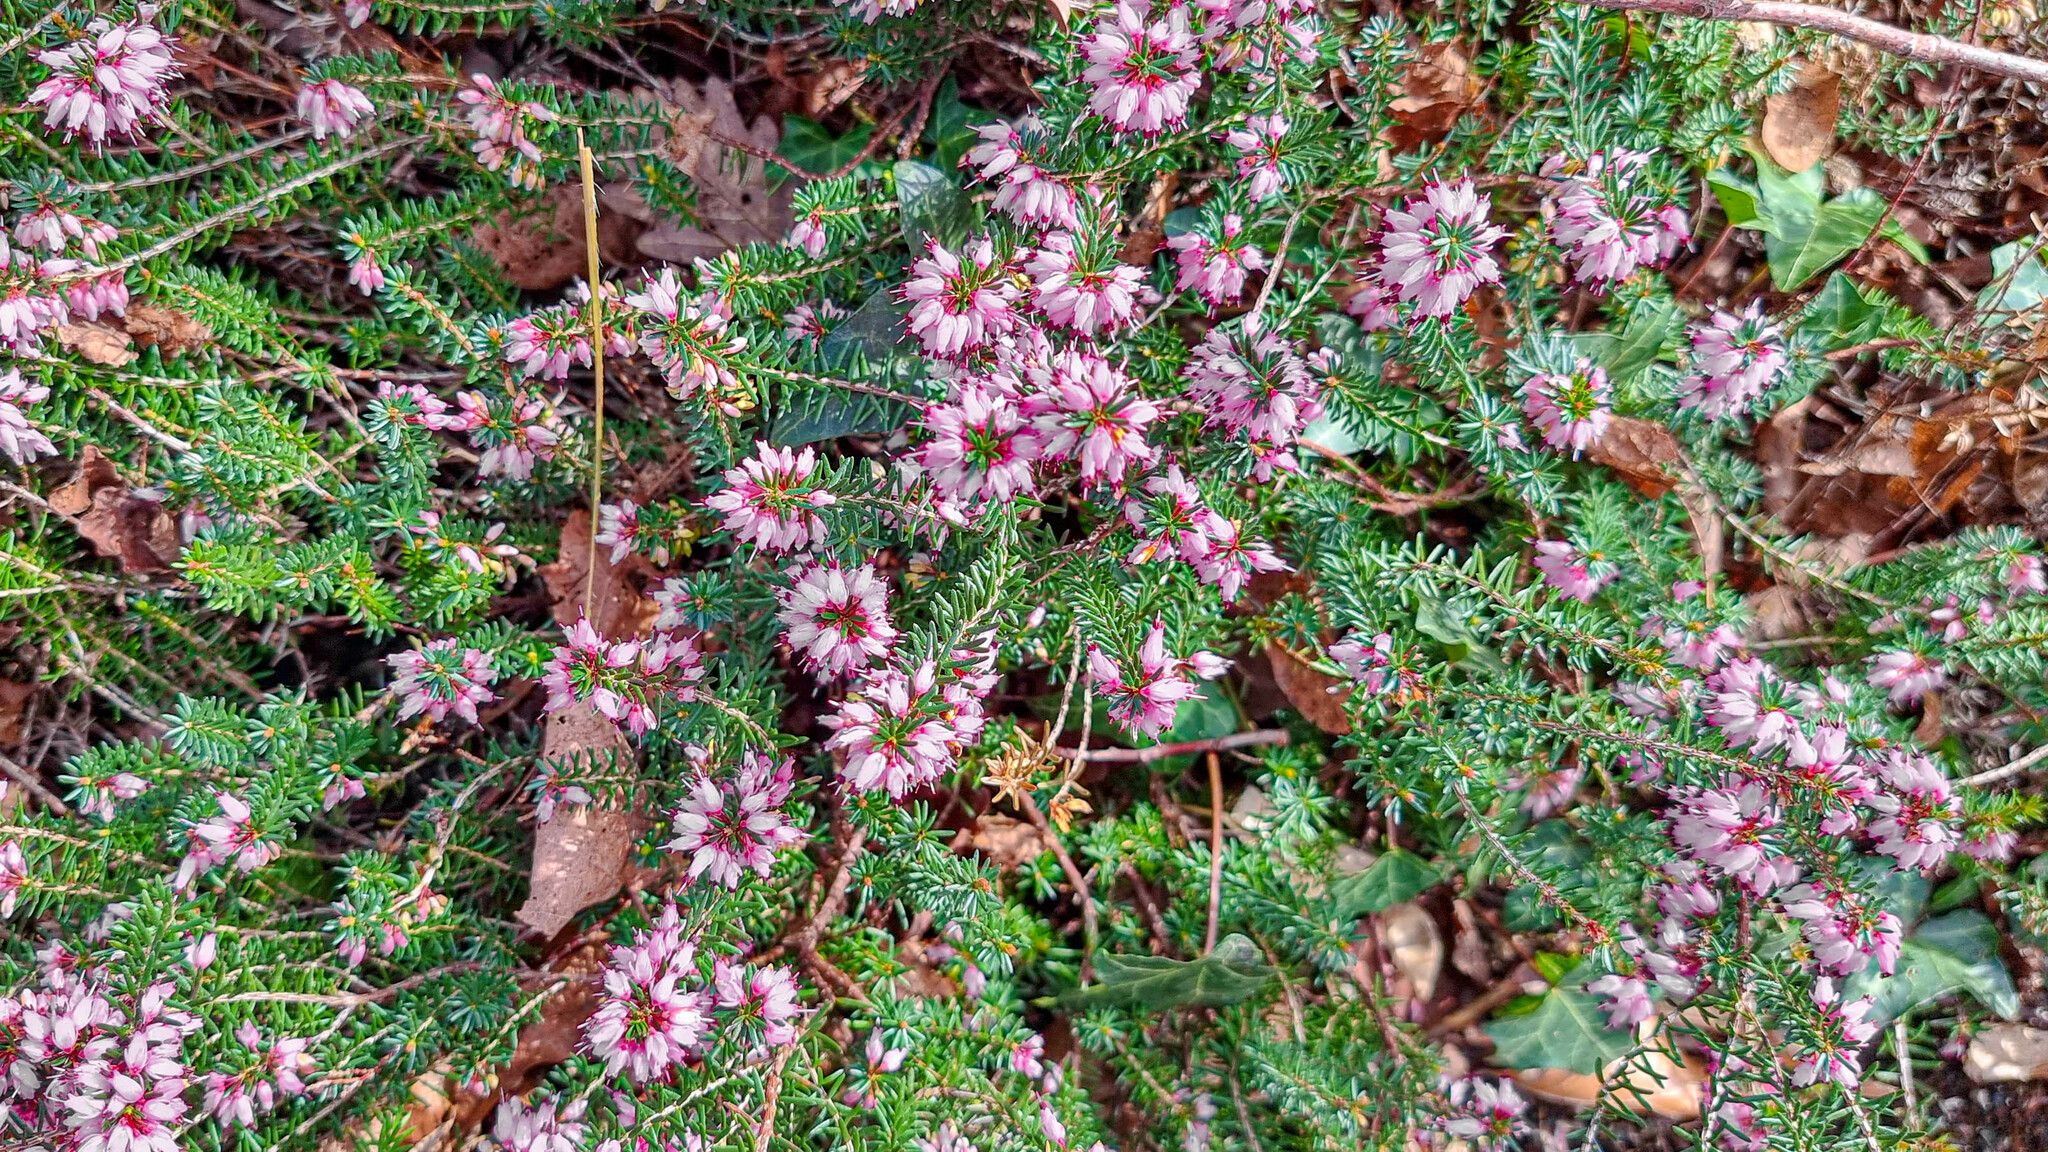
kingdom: Plantae
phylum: Tracheophyta
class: Magnoliopsida
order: Ericales
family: Ericaceae
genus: Erica
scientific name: Erica carnea
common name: Winter heath
